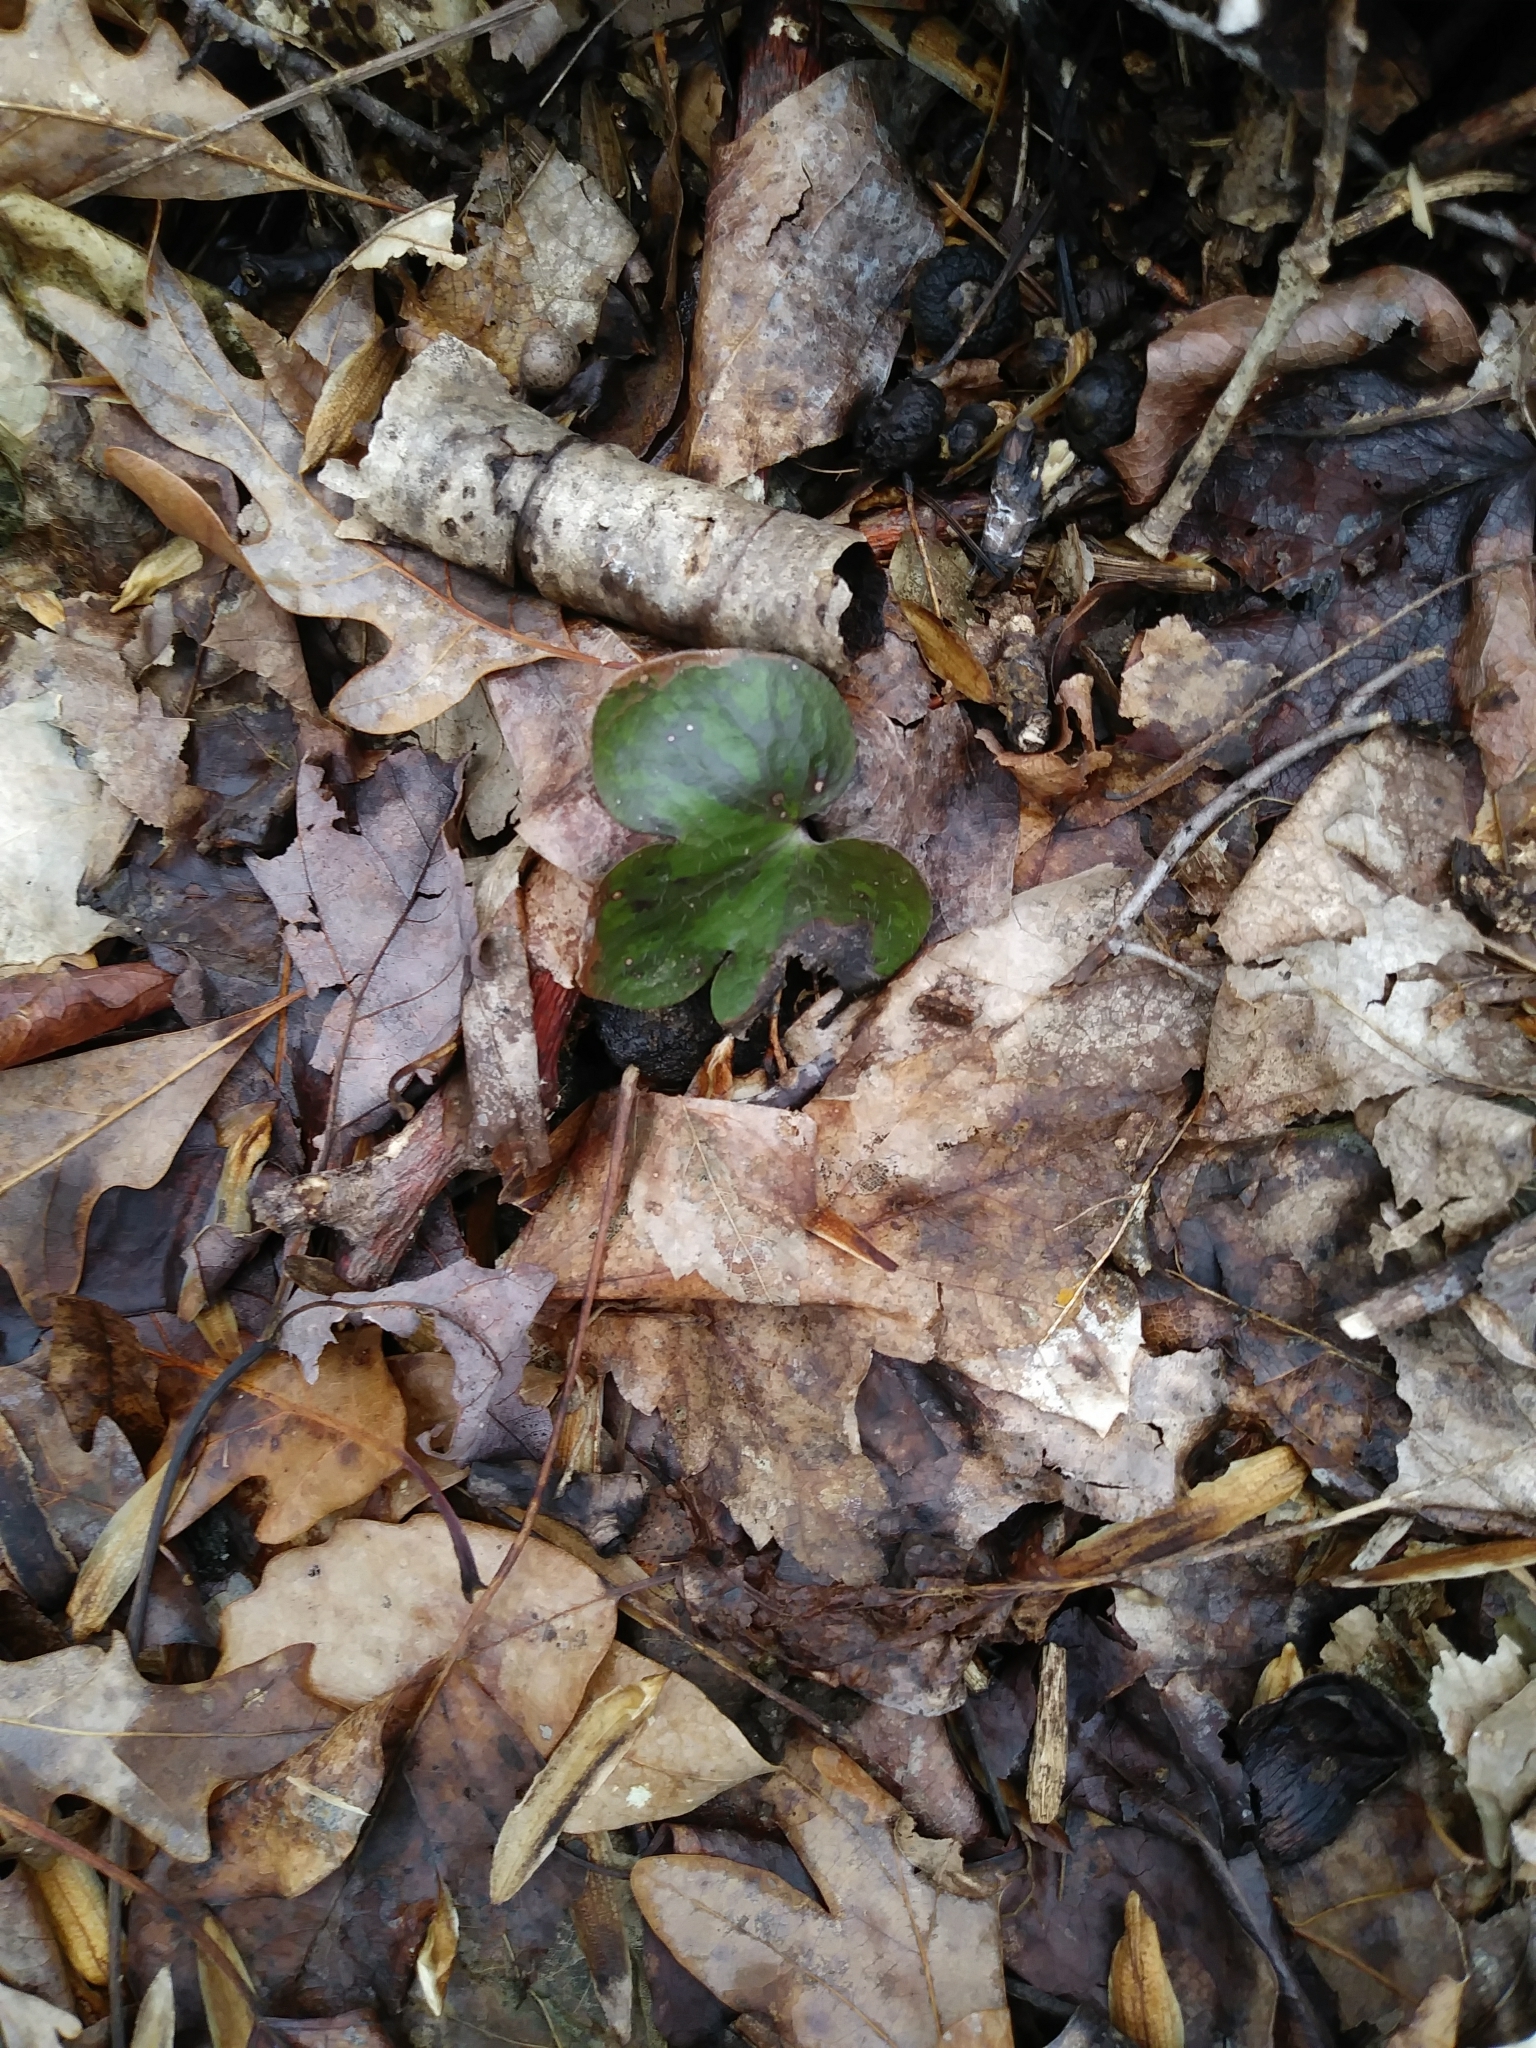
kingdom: Plantae
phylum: Tracheophyta
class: Magnoliopsida
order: Ranunculales
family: Ranunculaceae
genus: Hepatica
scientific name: Hepatica americana
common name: American hepatica
